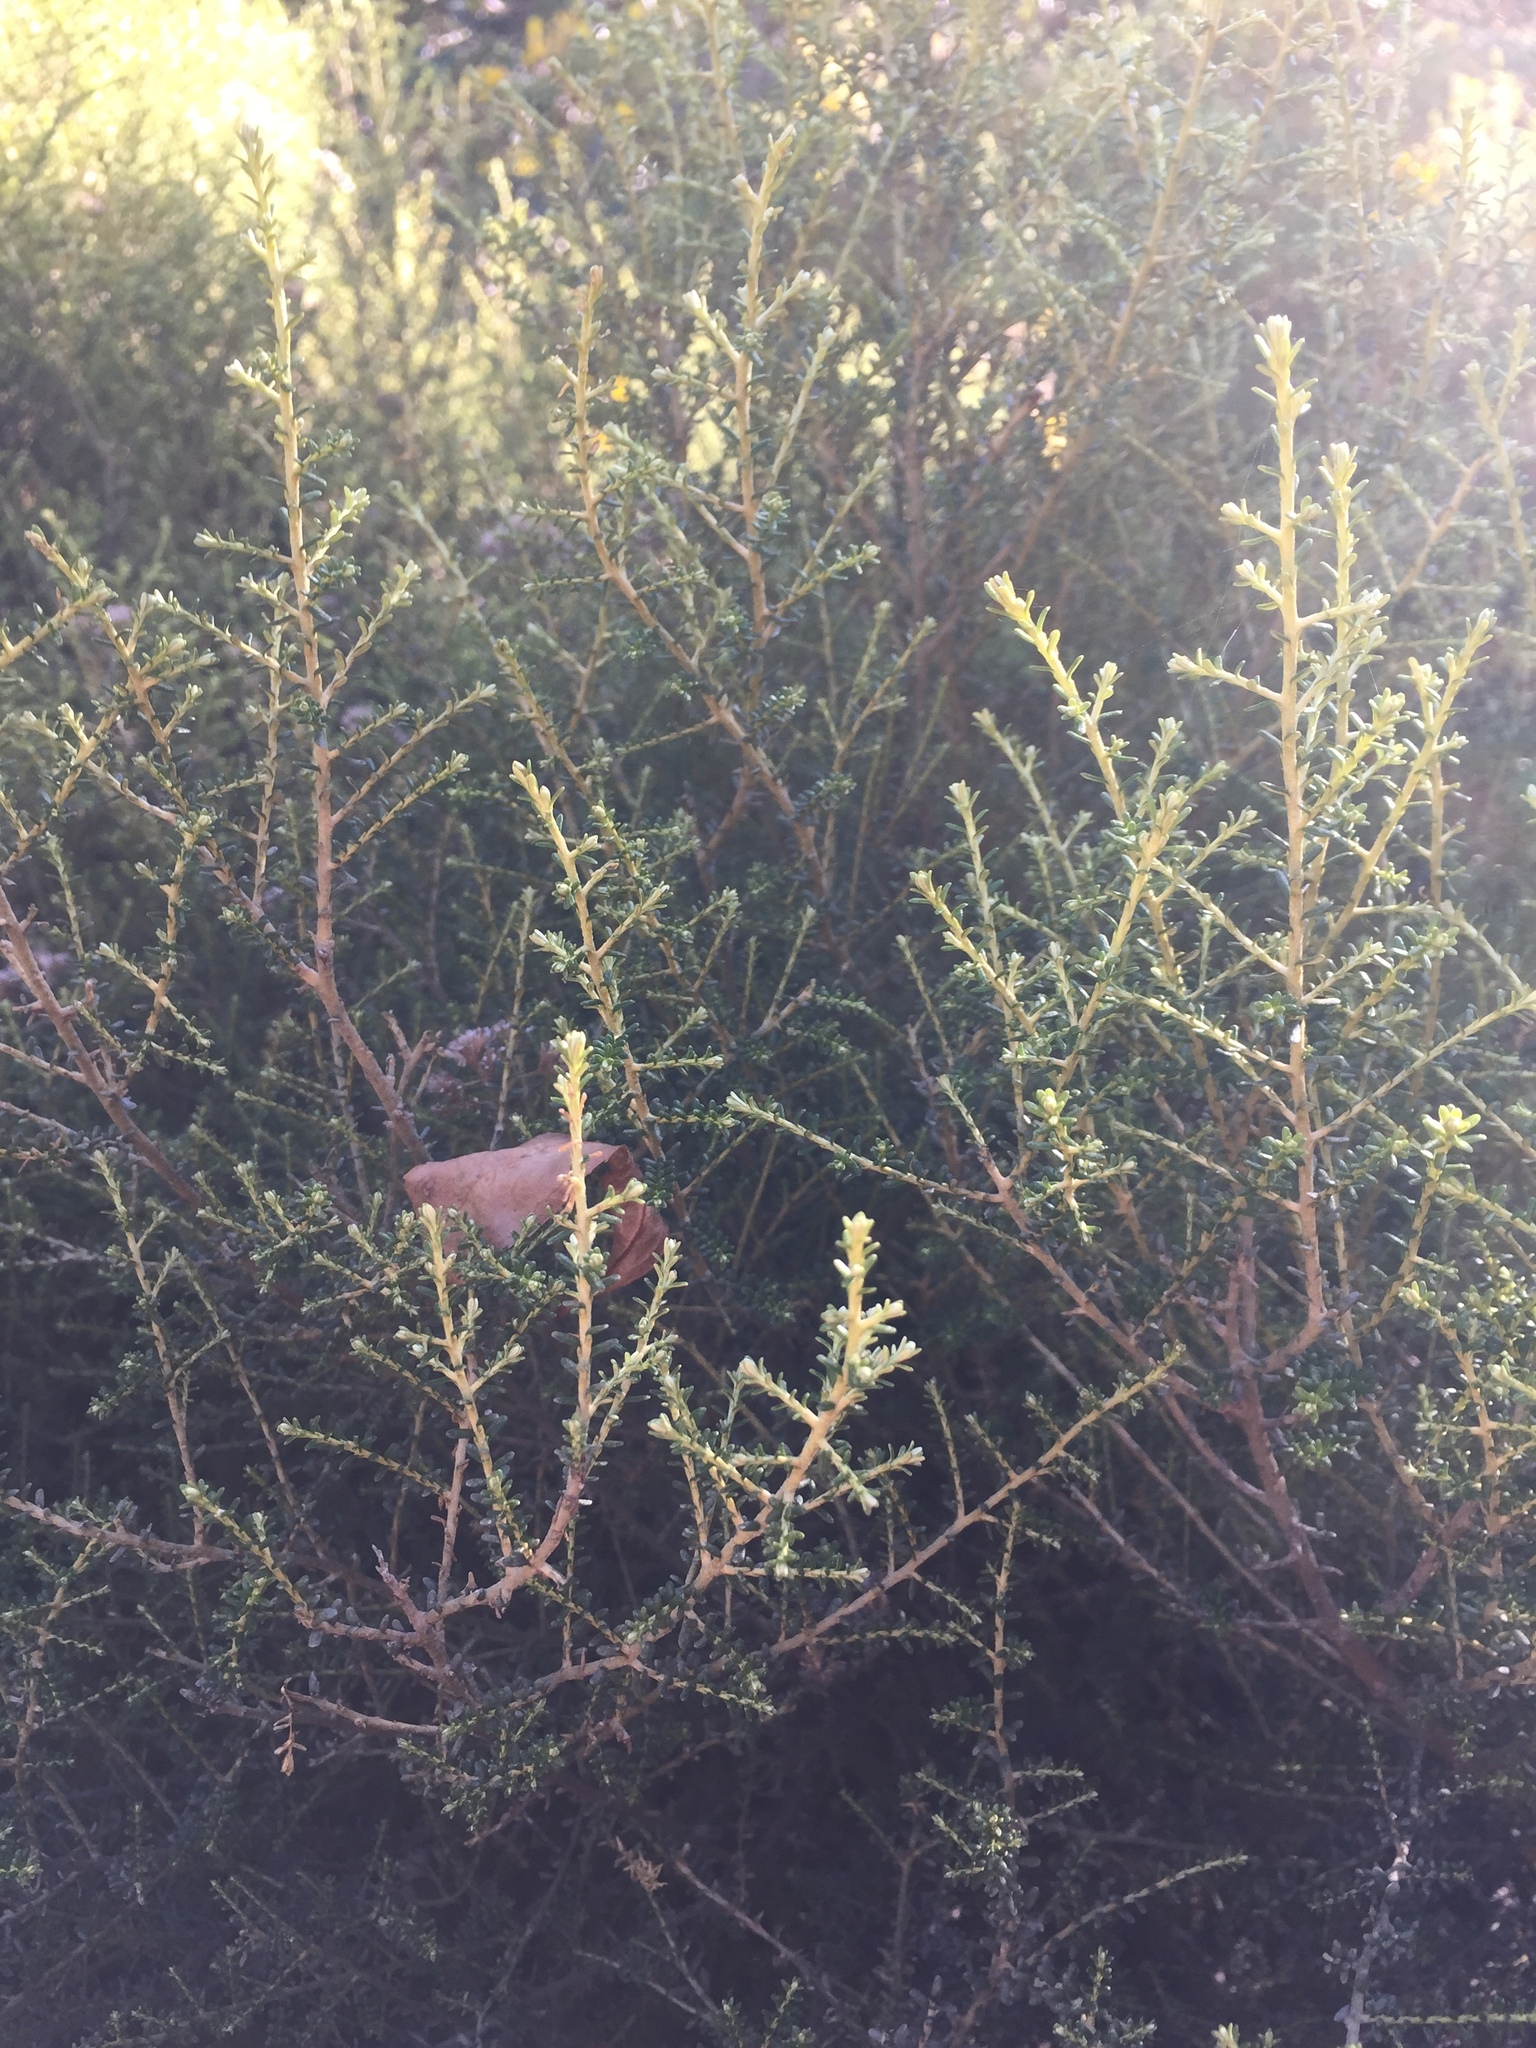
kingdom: Plantae
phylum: Tracheophyta
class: Magnoliopsida
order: Asterales
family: Asteraceae
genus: Ozothamnus
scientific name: Ozothamnus leptophyllus
